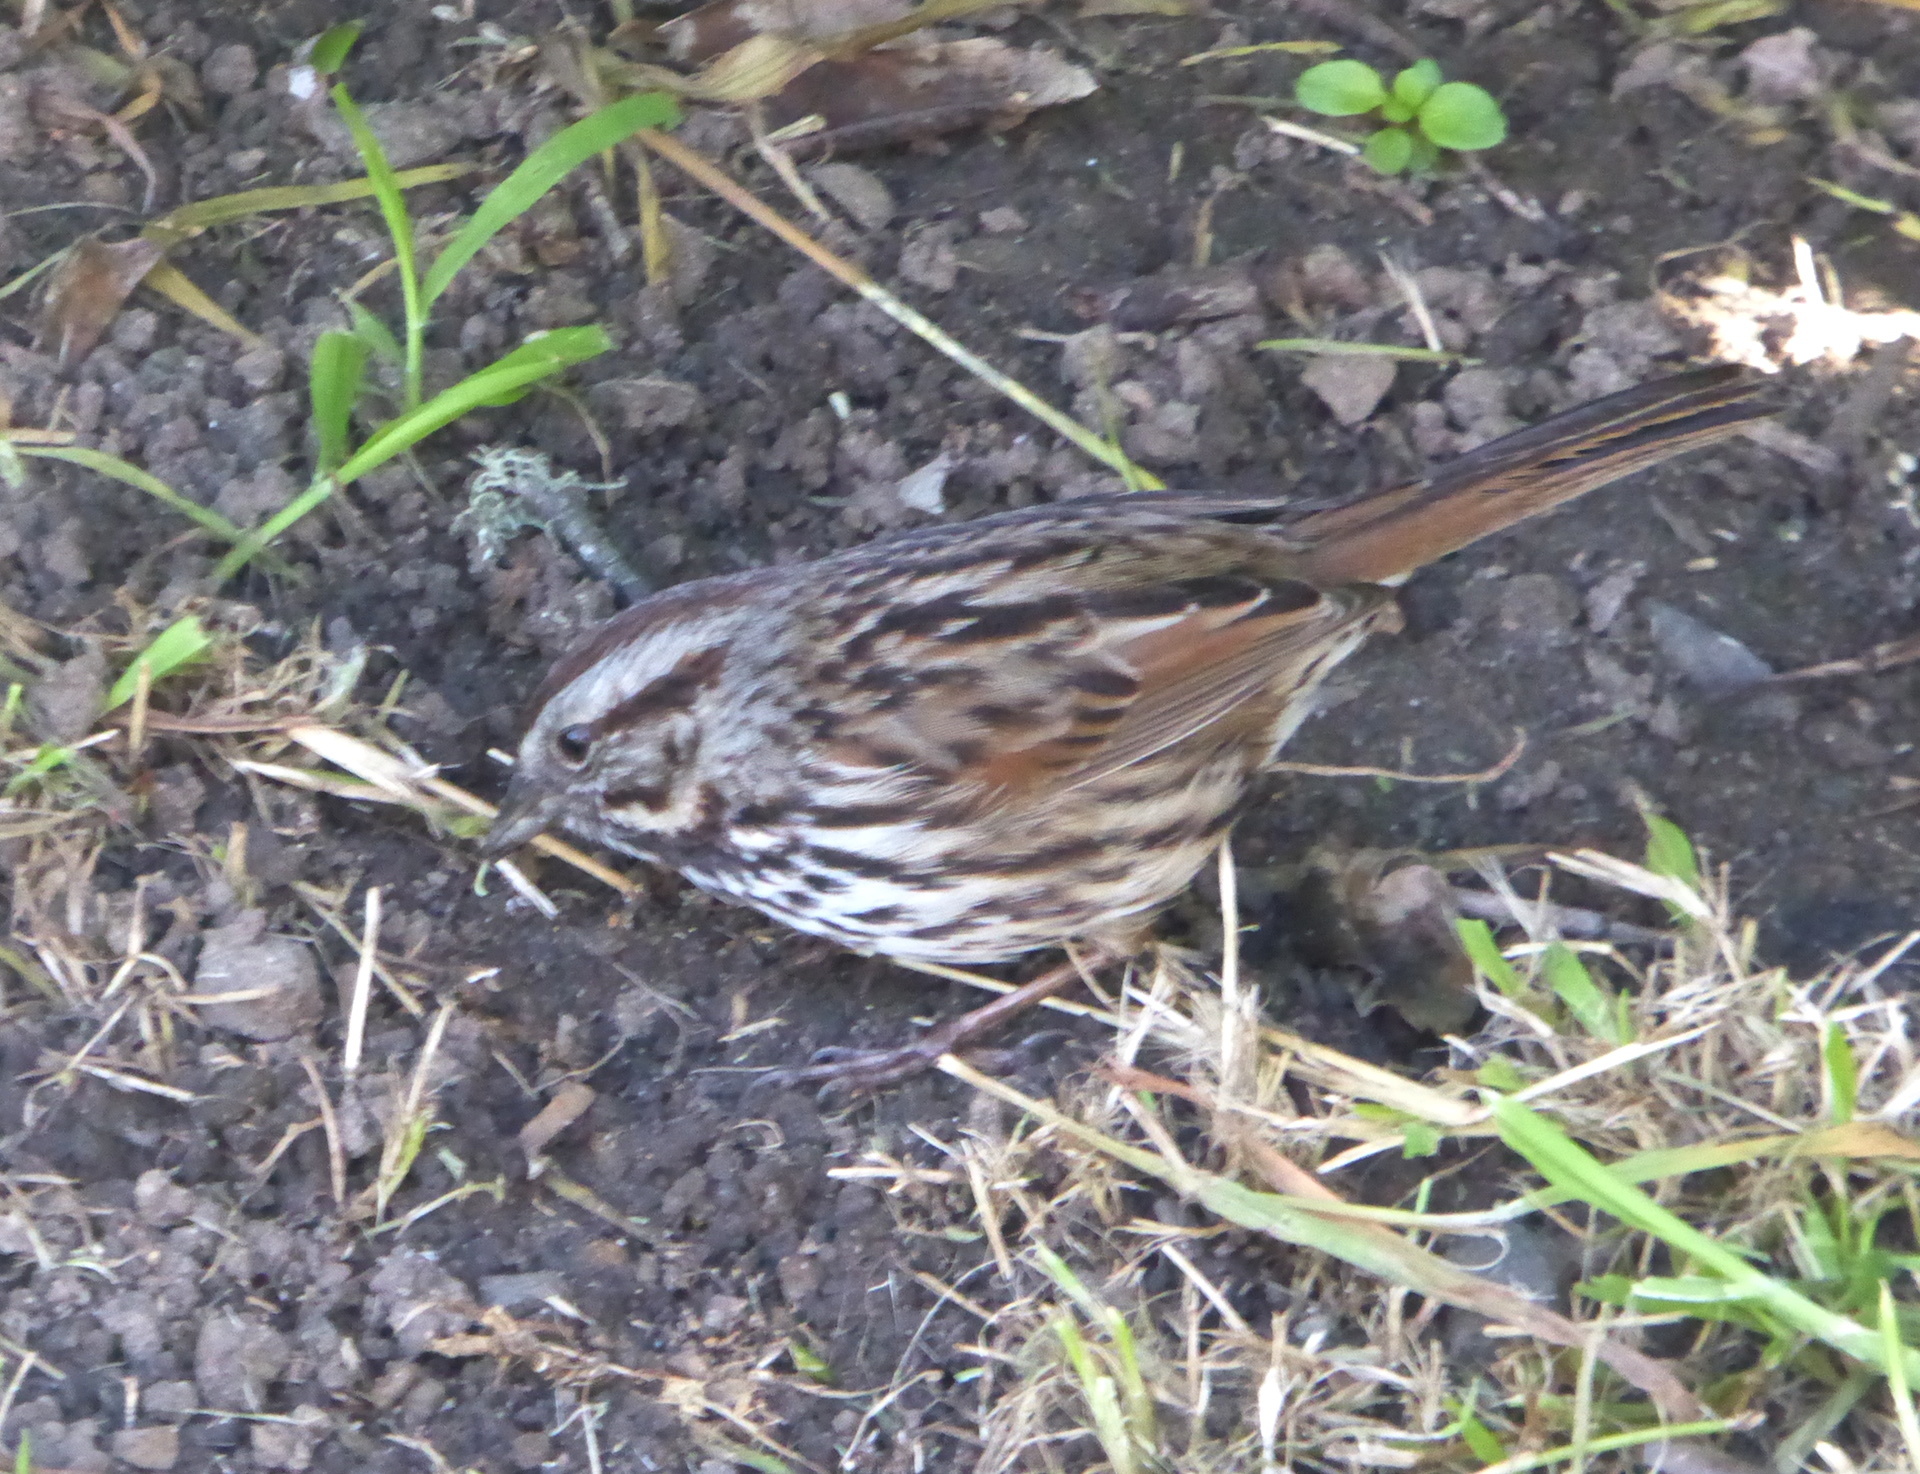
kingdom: Animalia
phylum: Chordata
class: Aves
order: Passeriformes
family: Passerellidae
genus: Melospiza
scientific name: Melospiza melodia
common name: Song sparrow
